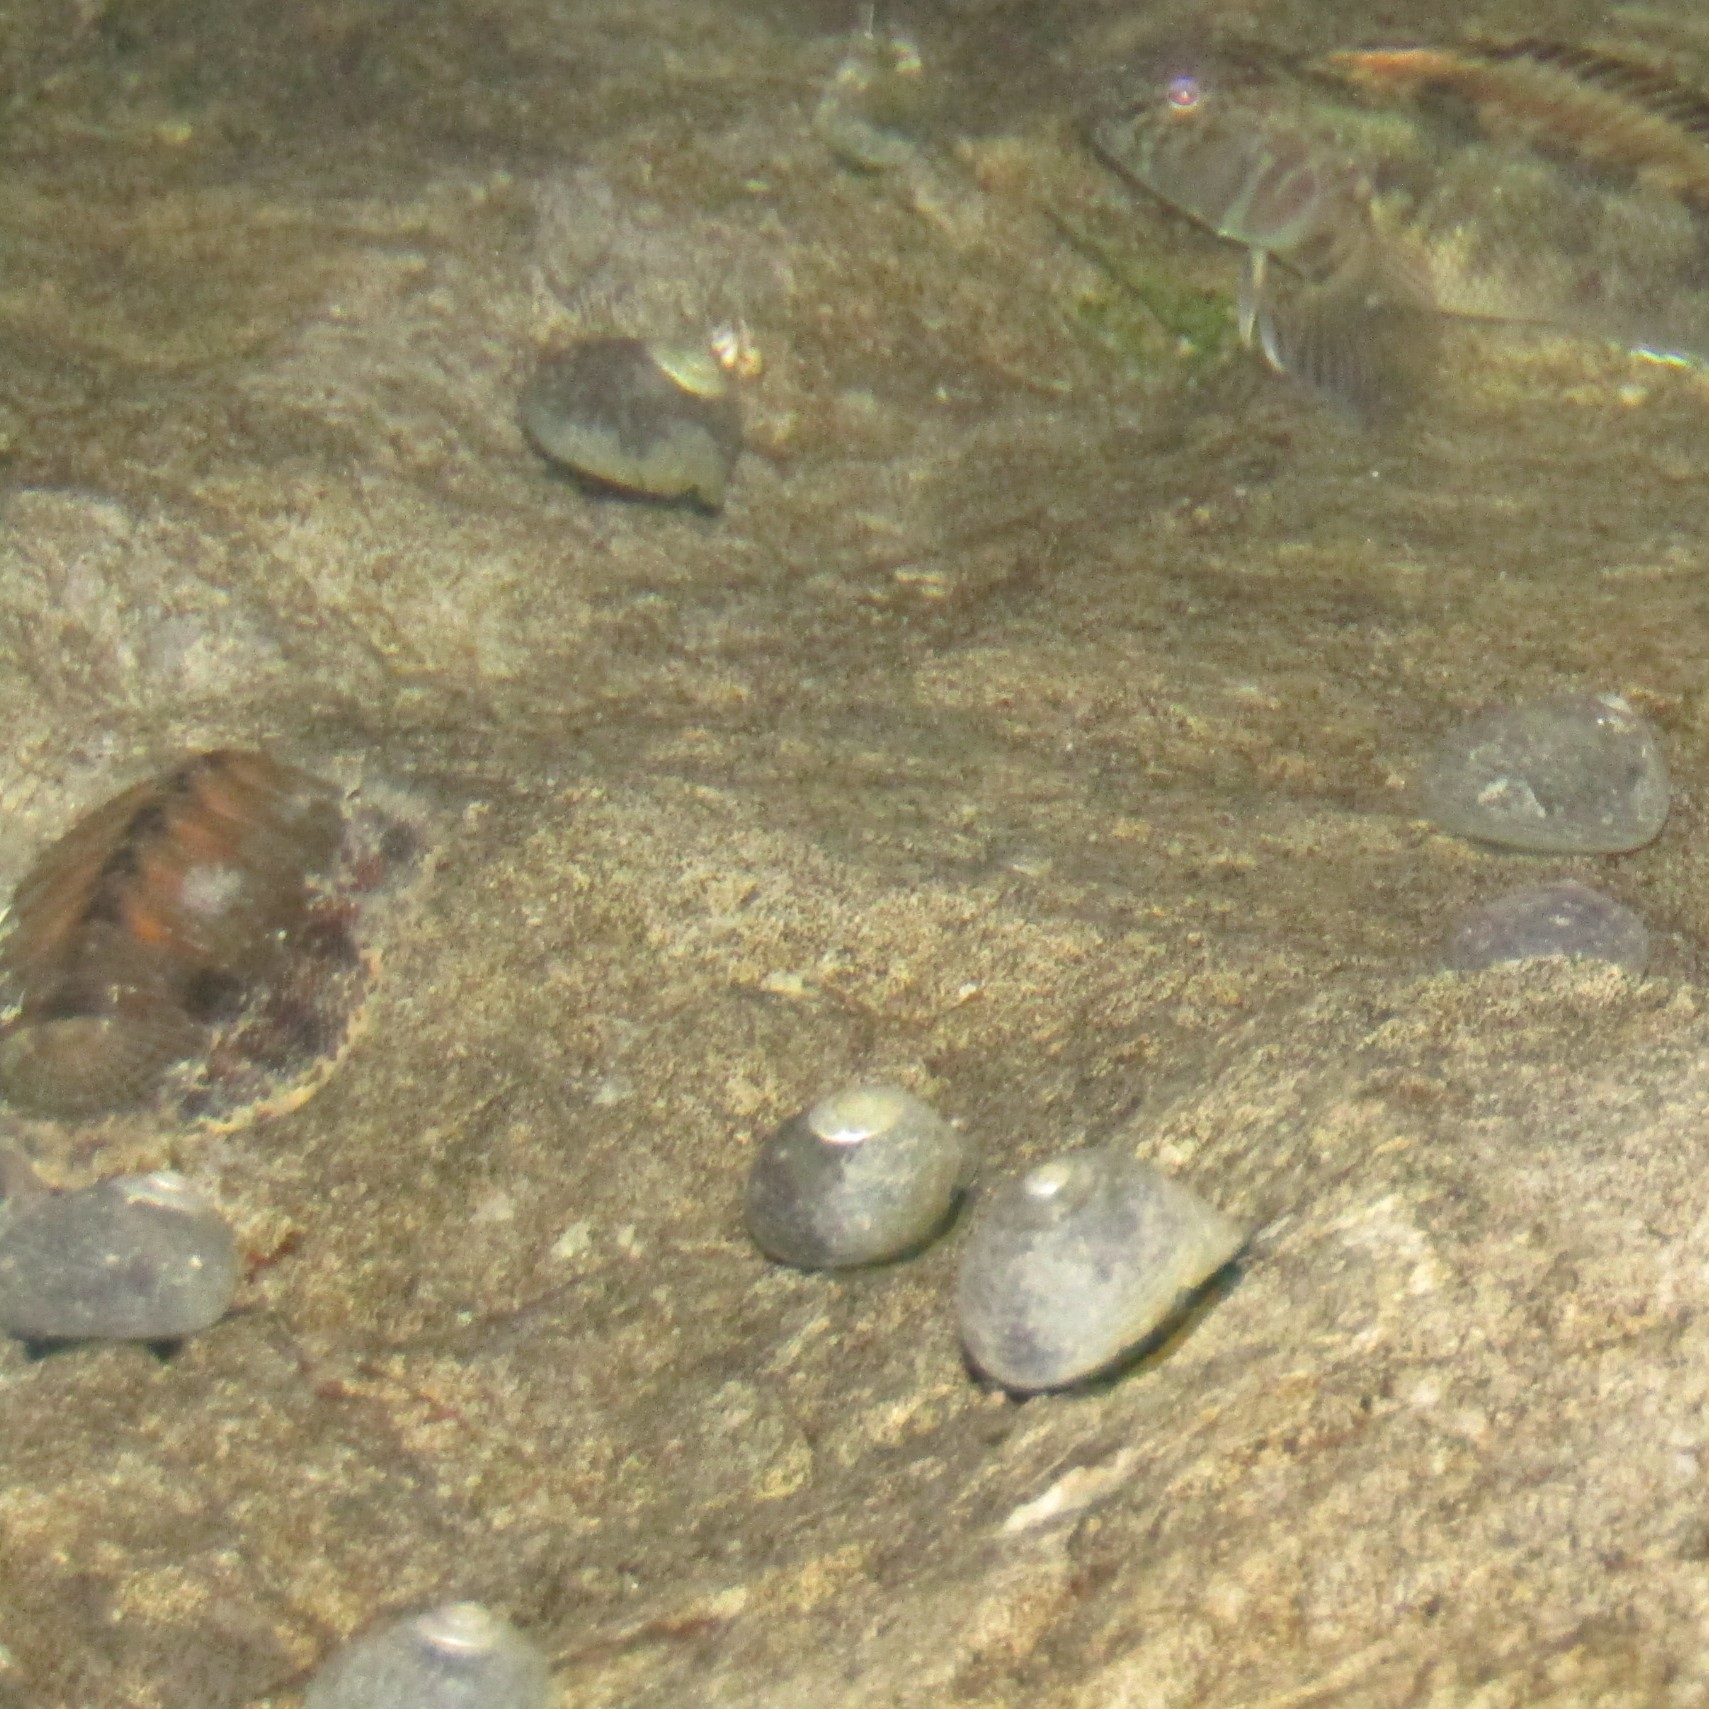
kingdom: Animalia
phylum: Mollusca
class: Gastropoda
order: Trochida
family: Trochidae
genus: Diloma
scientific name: Diloma aethiops
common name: Scorched monodont
